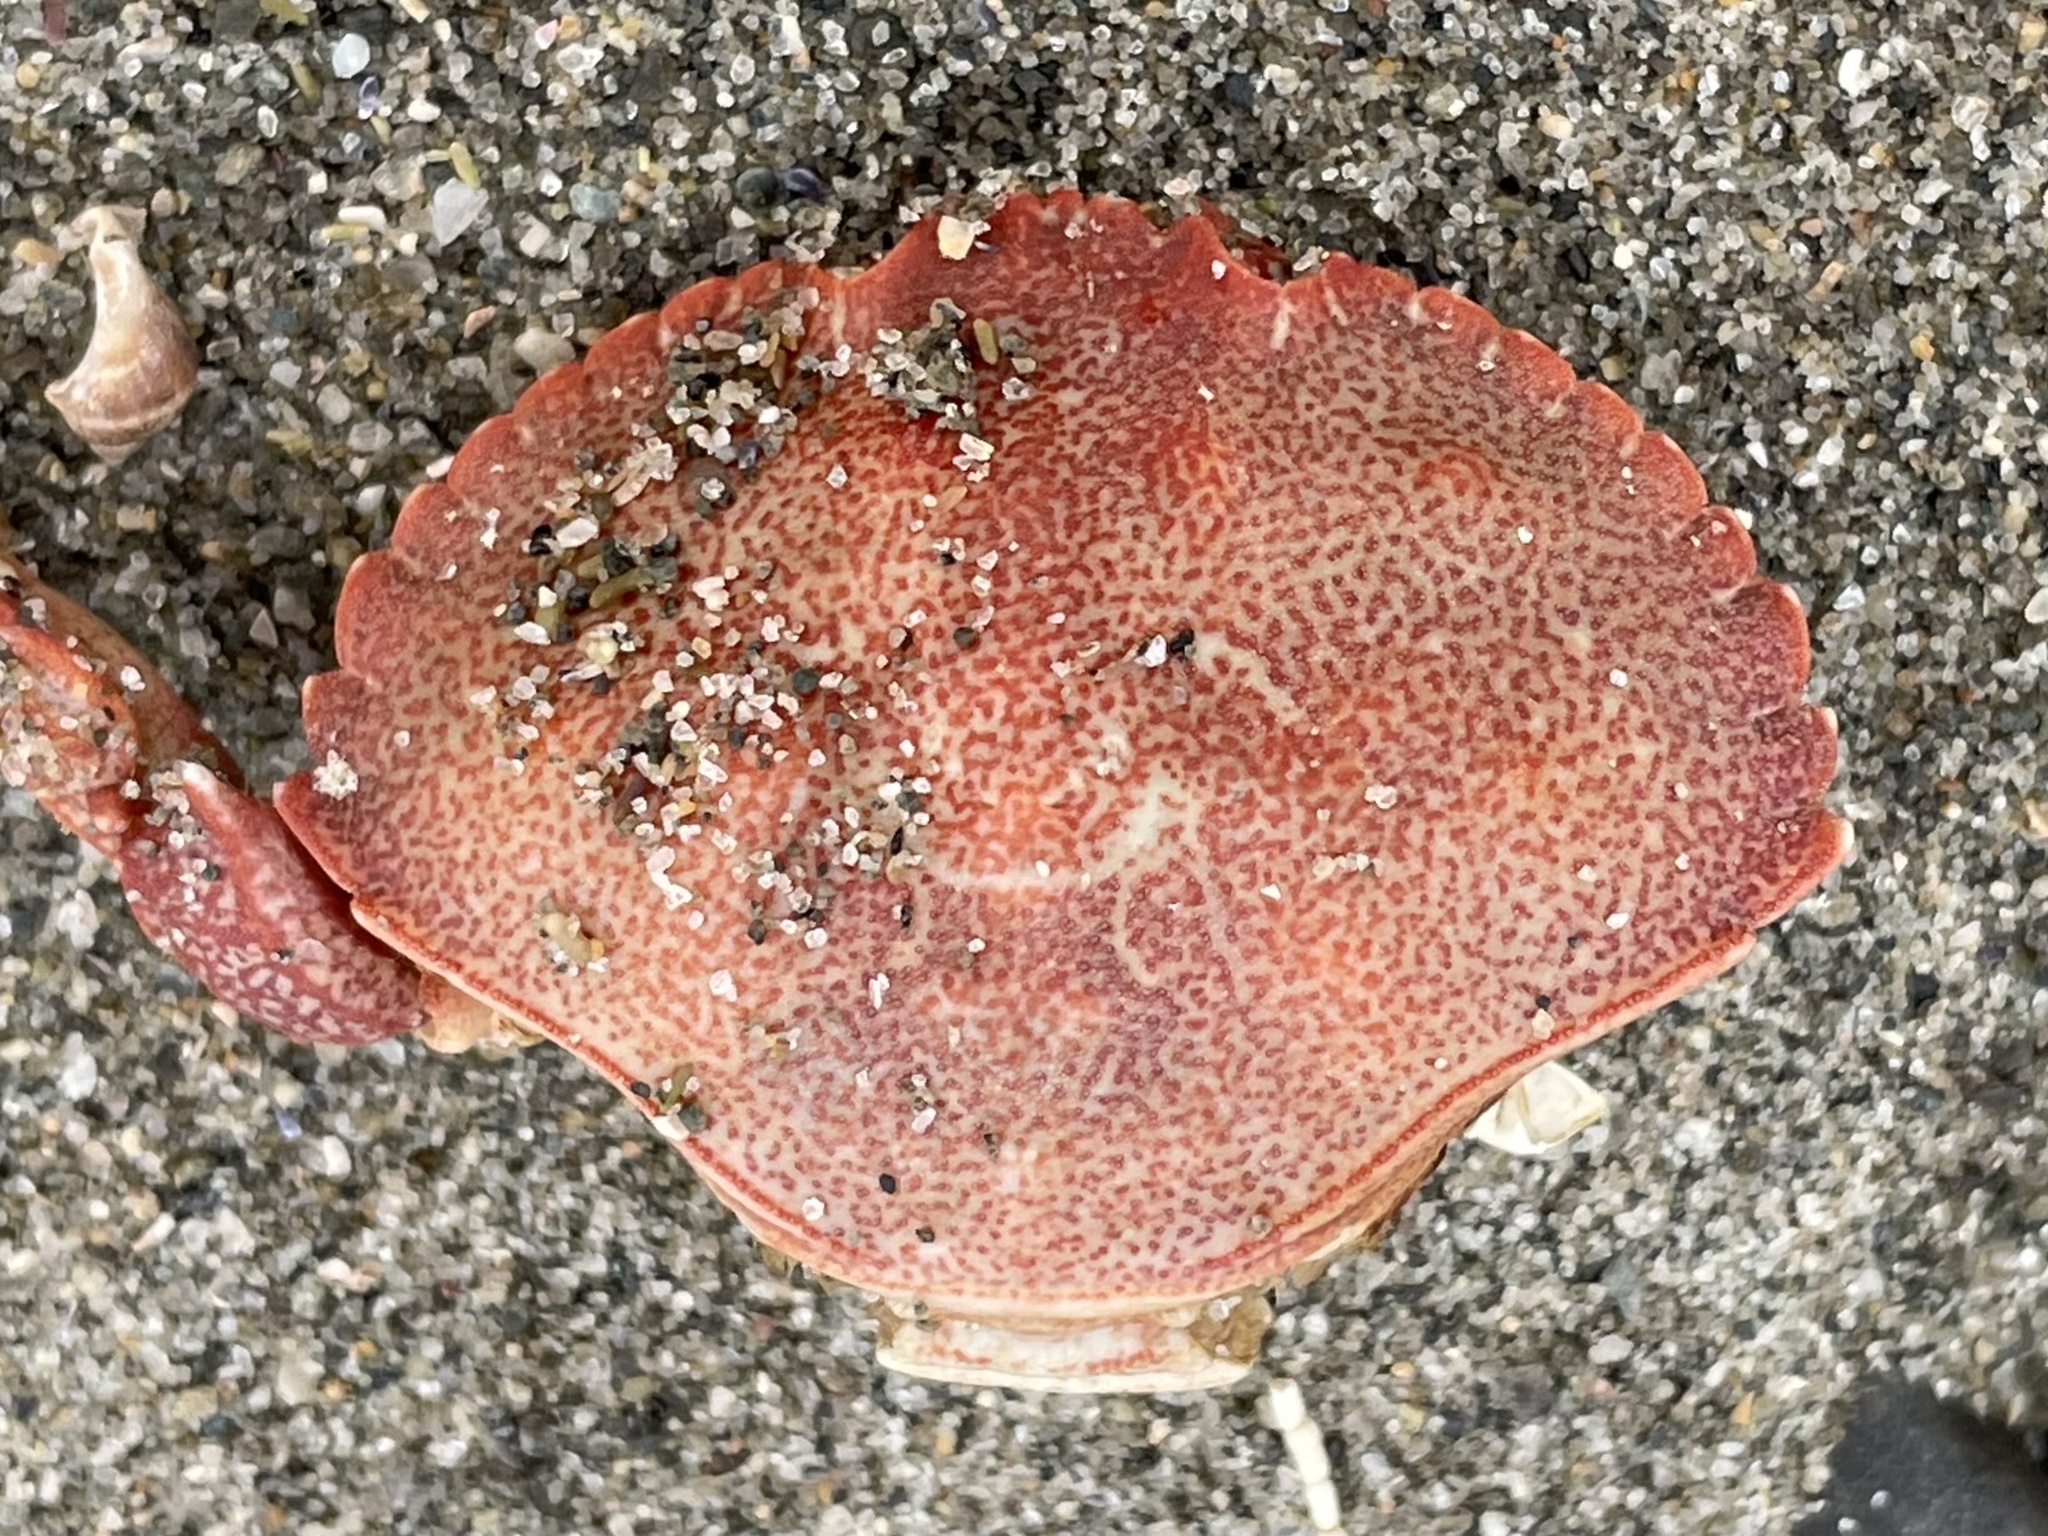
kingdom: Animalia
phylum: Arthropoda
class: Malacostraca
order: Decapoda
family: Cancridae
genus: Cancer
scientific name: Cancer irroratus
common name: Atlantic rock crab
